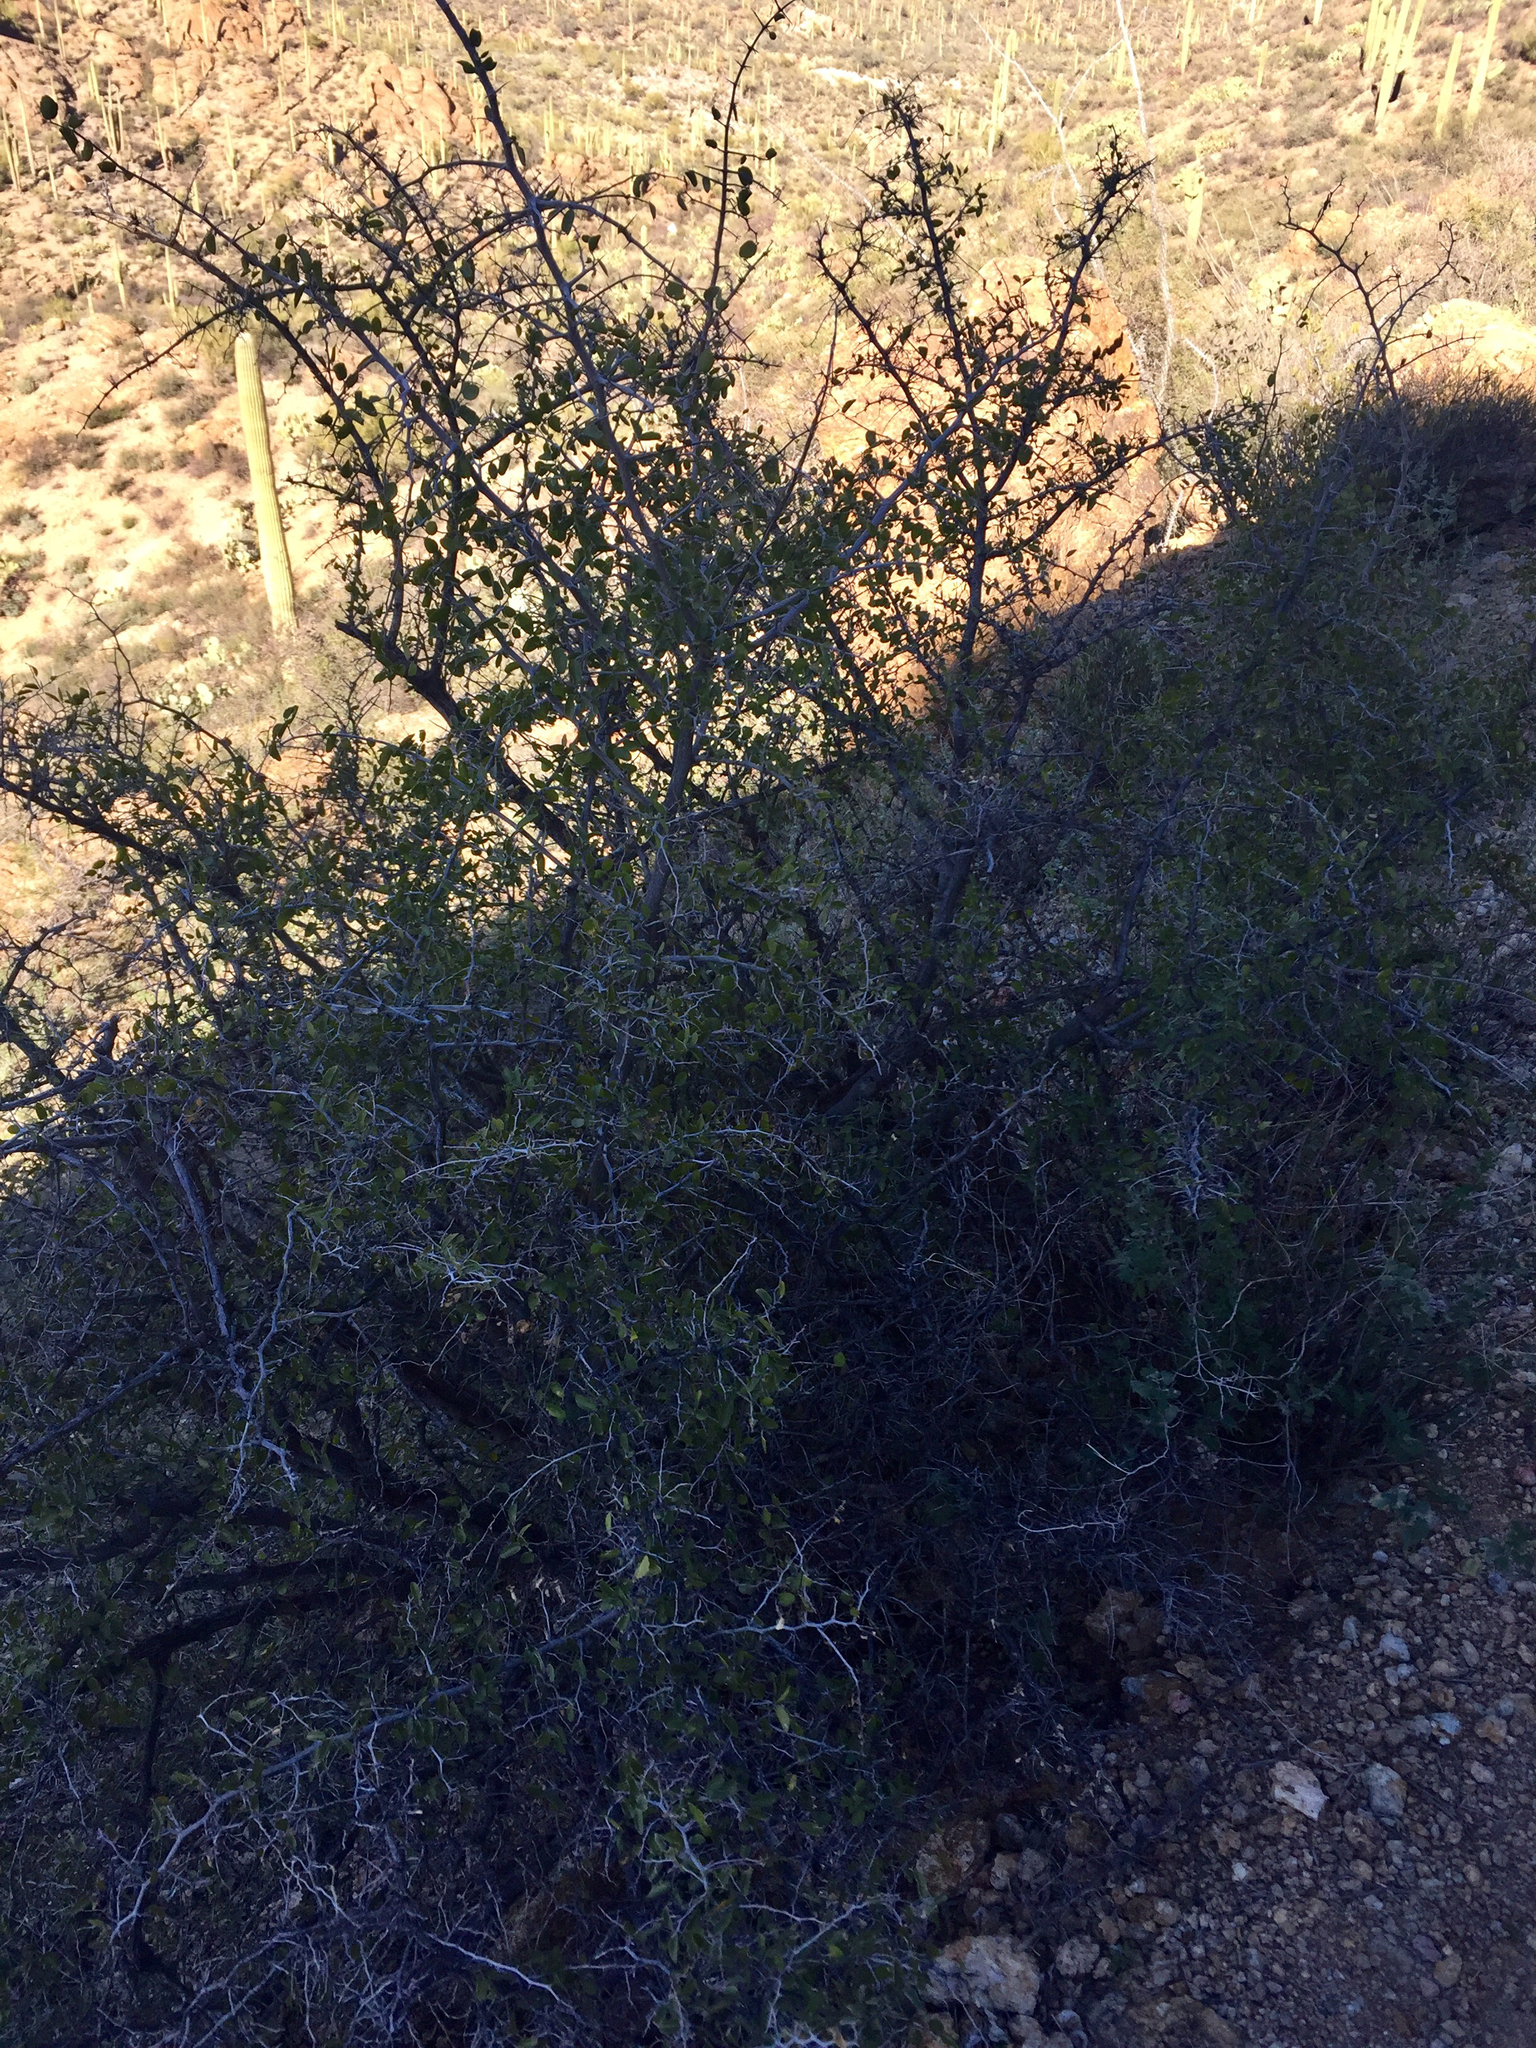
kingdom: Plantae
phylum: Tracheophyta
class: Magnoliopsida
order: Rosales
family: Cannabaceae
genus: Celtis
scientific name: Celtis pallida
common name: Desert hackberry
